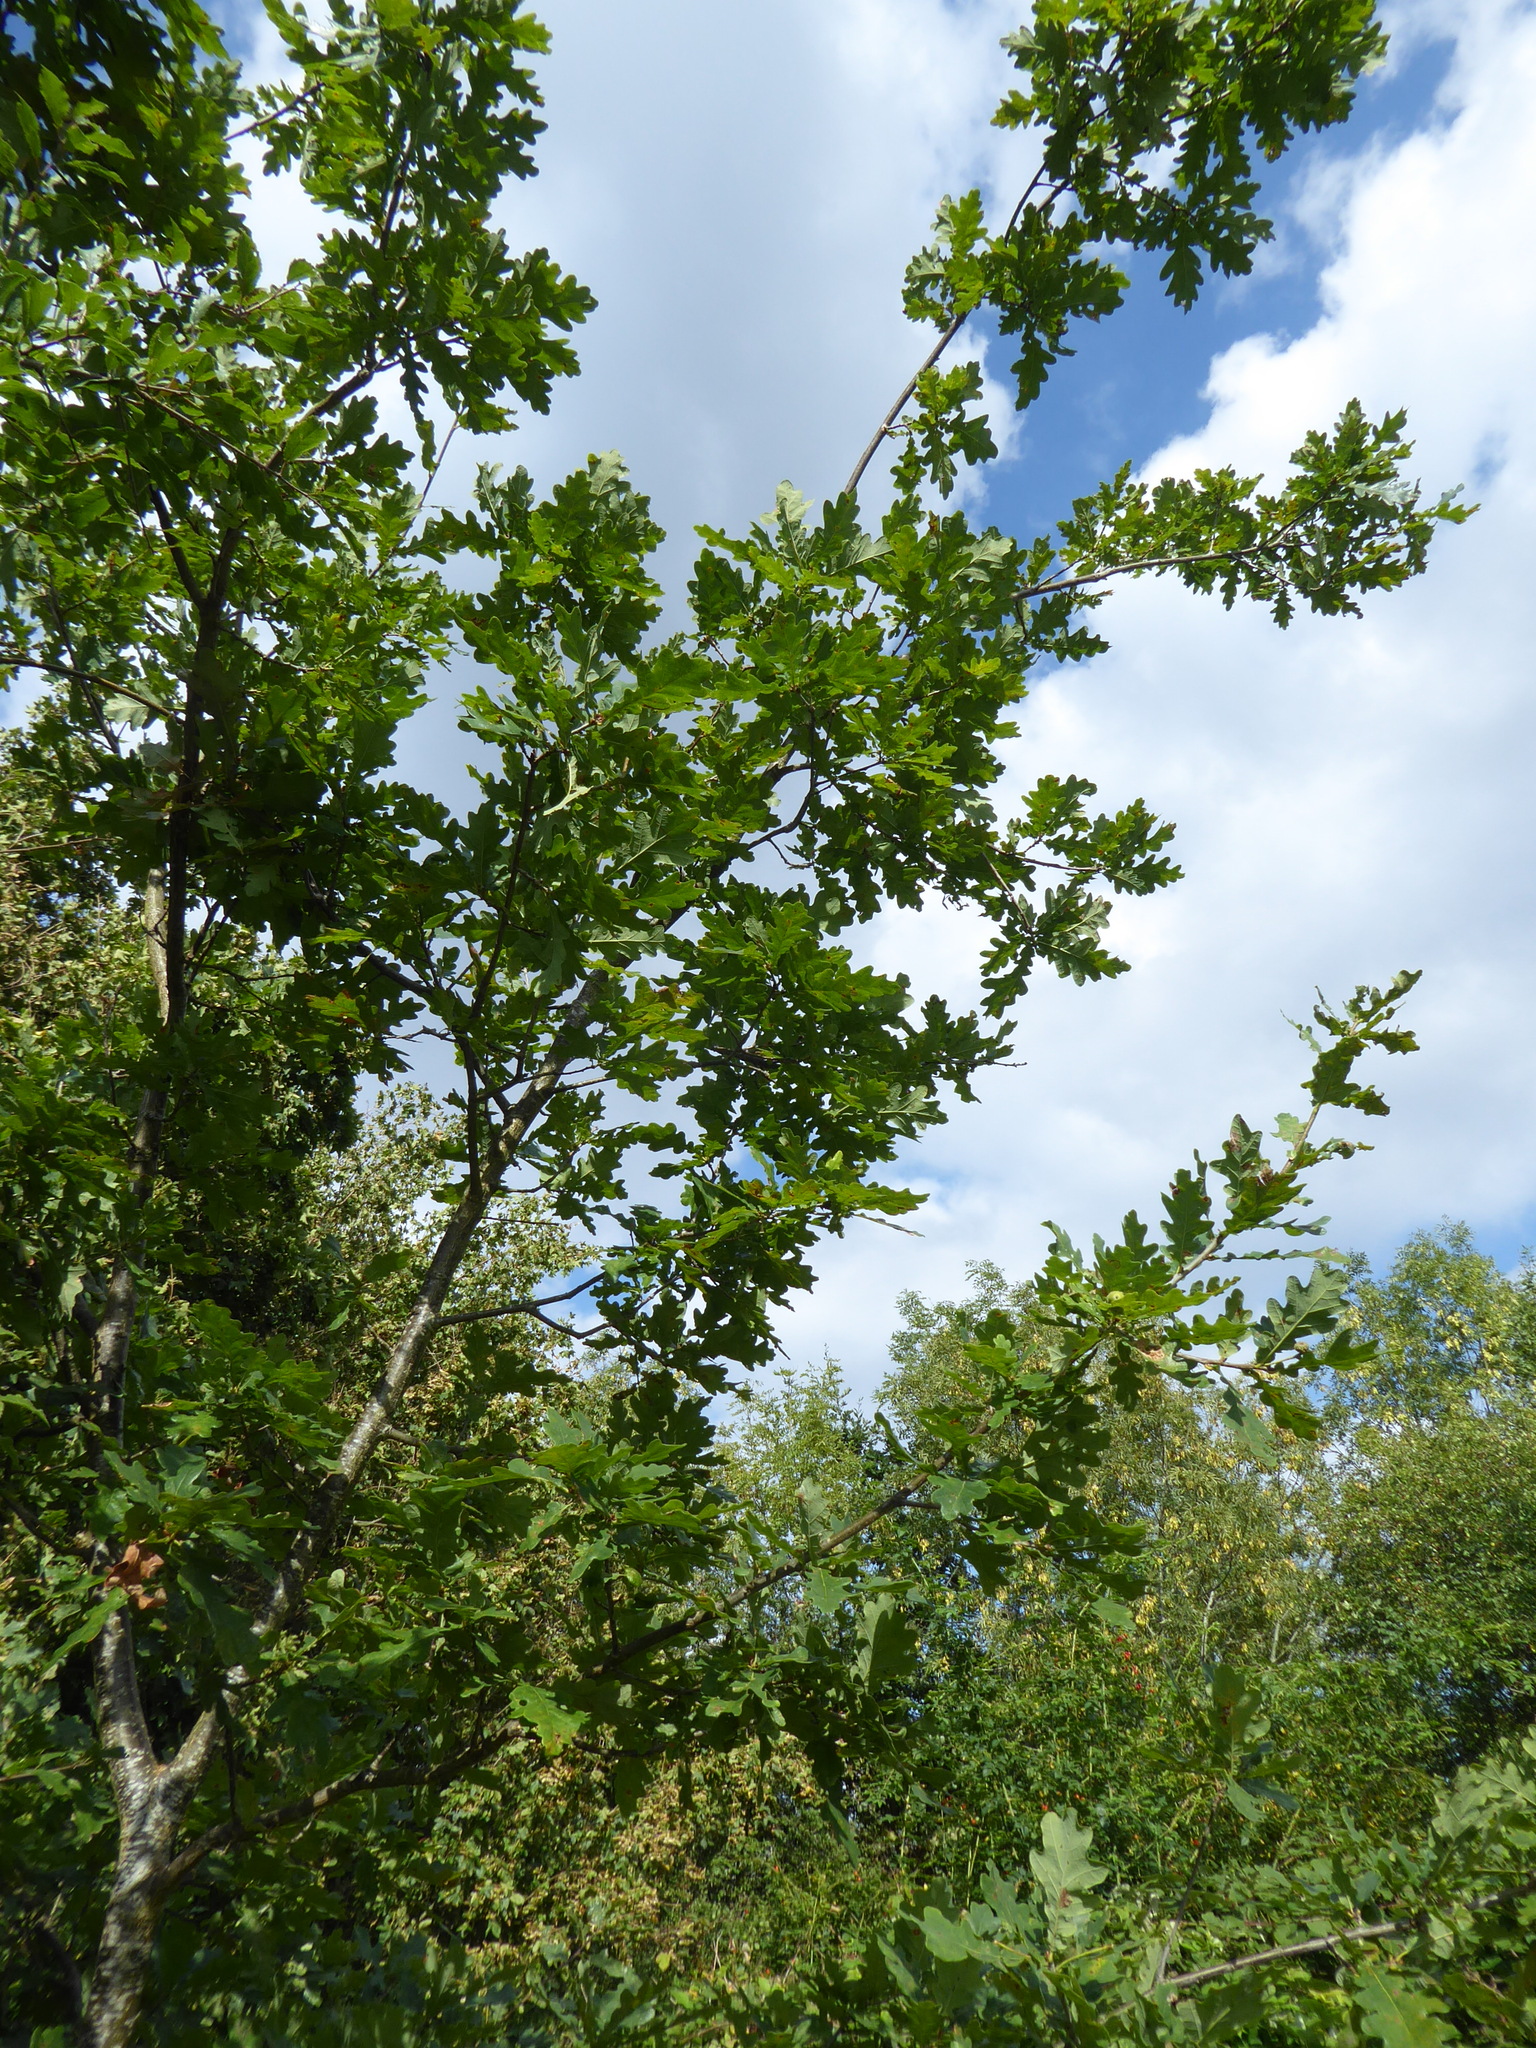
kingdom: Plantae
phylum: Tracheophyta
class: Magnoliopsida
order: Fagales
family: Fagaceae
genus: Quercus
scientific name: Quercus robur
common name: Pedunculate oak
